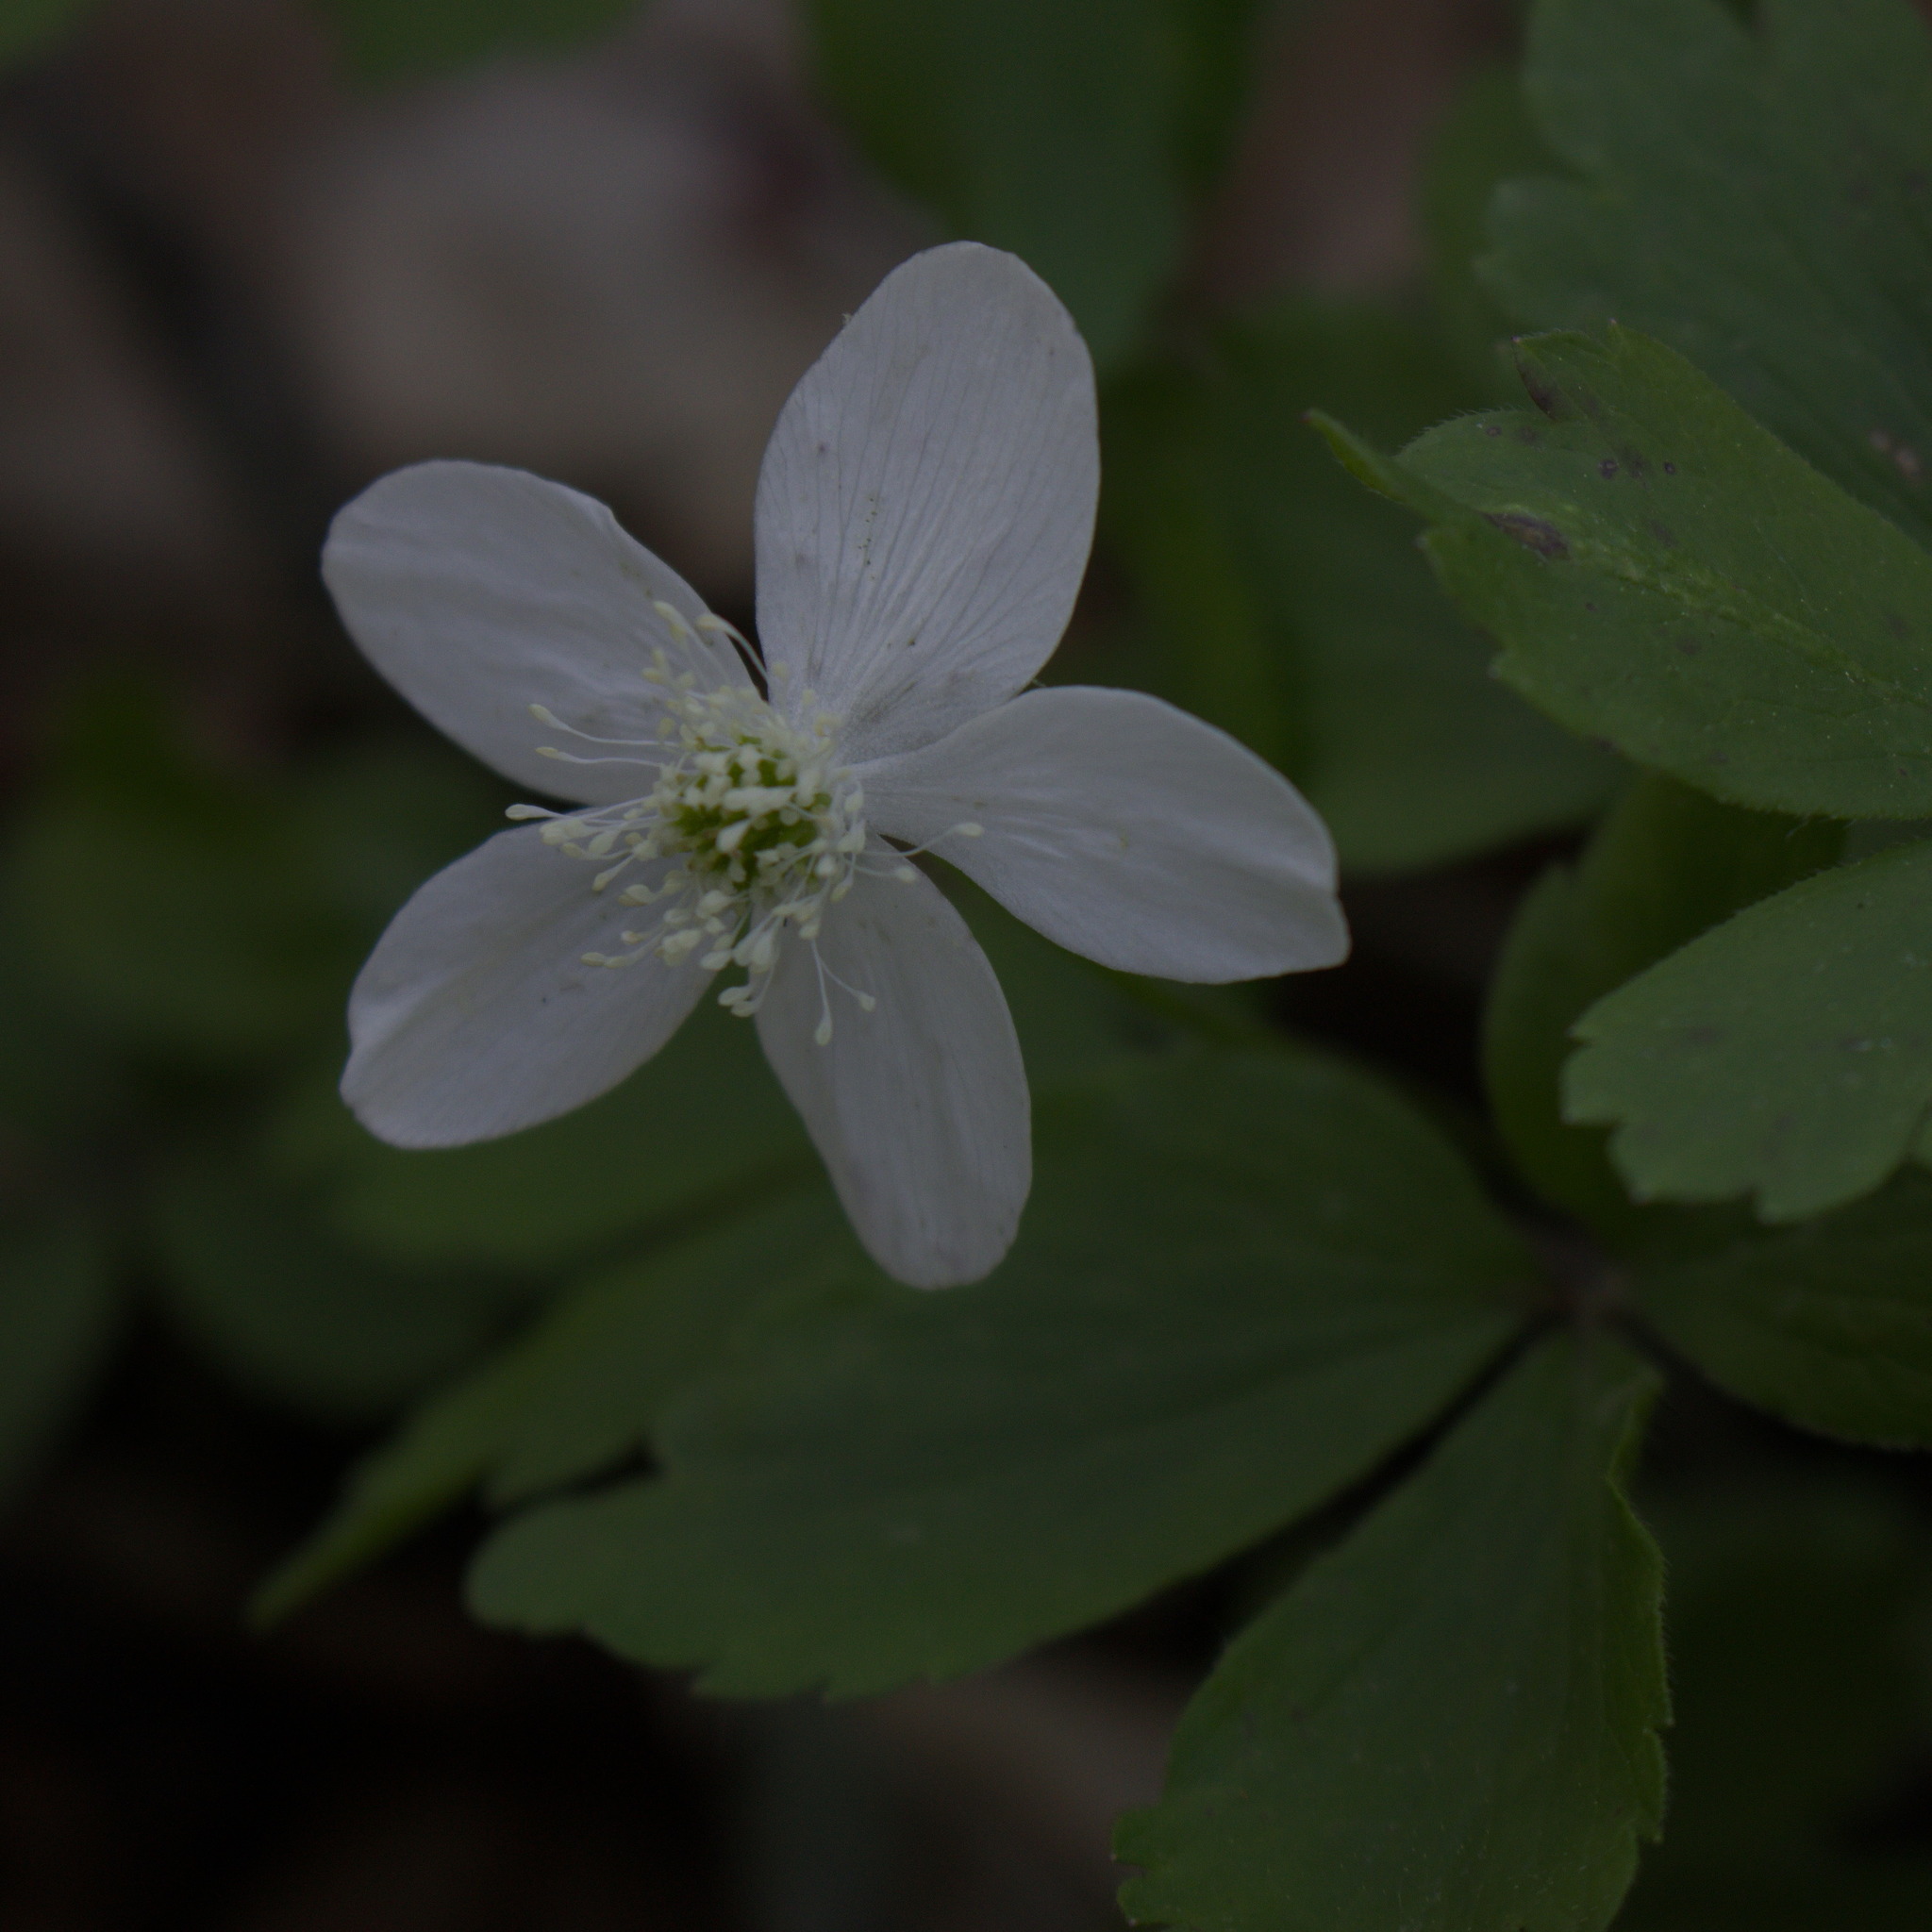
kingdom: Plantae
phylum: Tracheophyta
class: Magnoliopsida
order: Ranunculales
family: Ranunculaceae
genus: Anemone
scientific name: Anemone quinquefolia
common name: Wood anemone
